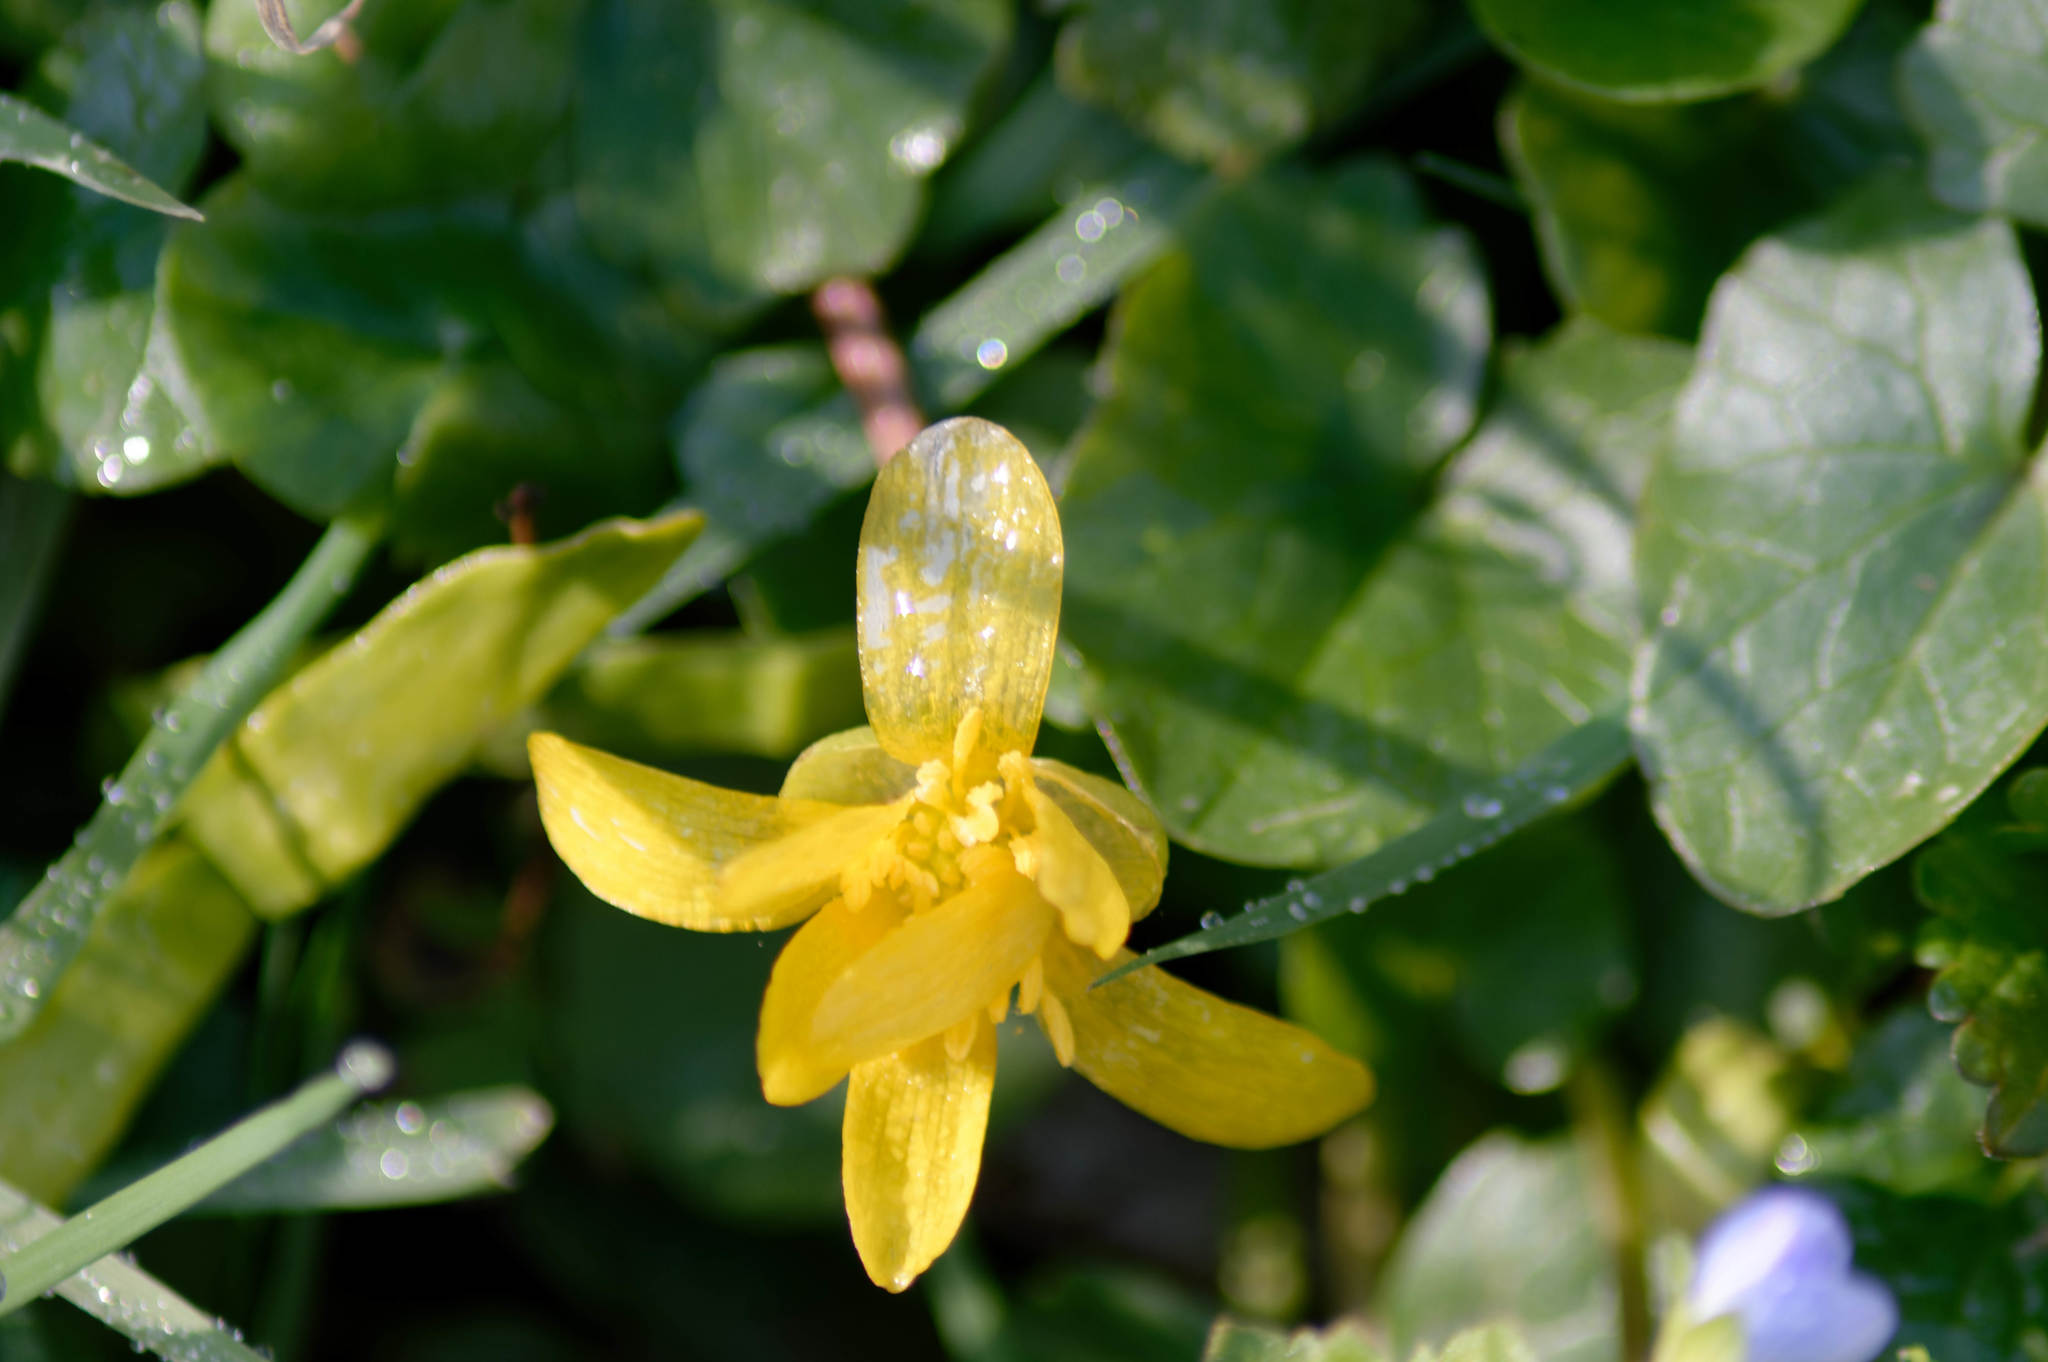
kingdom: Plantae
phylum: Tracheophyta
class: Magnoliopsida
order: Ranunculales
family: Ranunculaceae
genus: Ficaria
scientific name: Ficaria verna
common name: Lesser celandine
